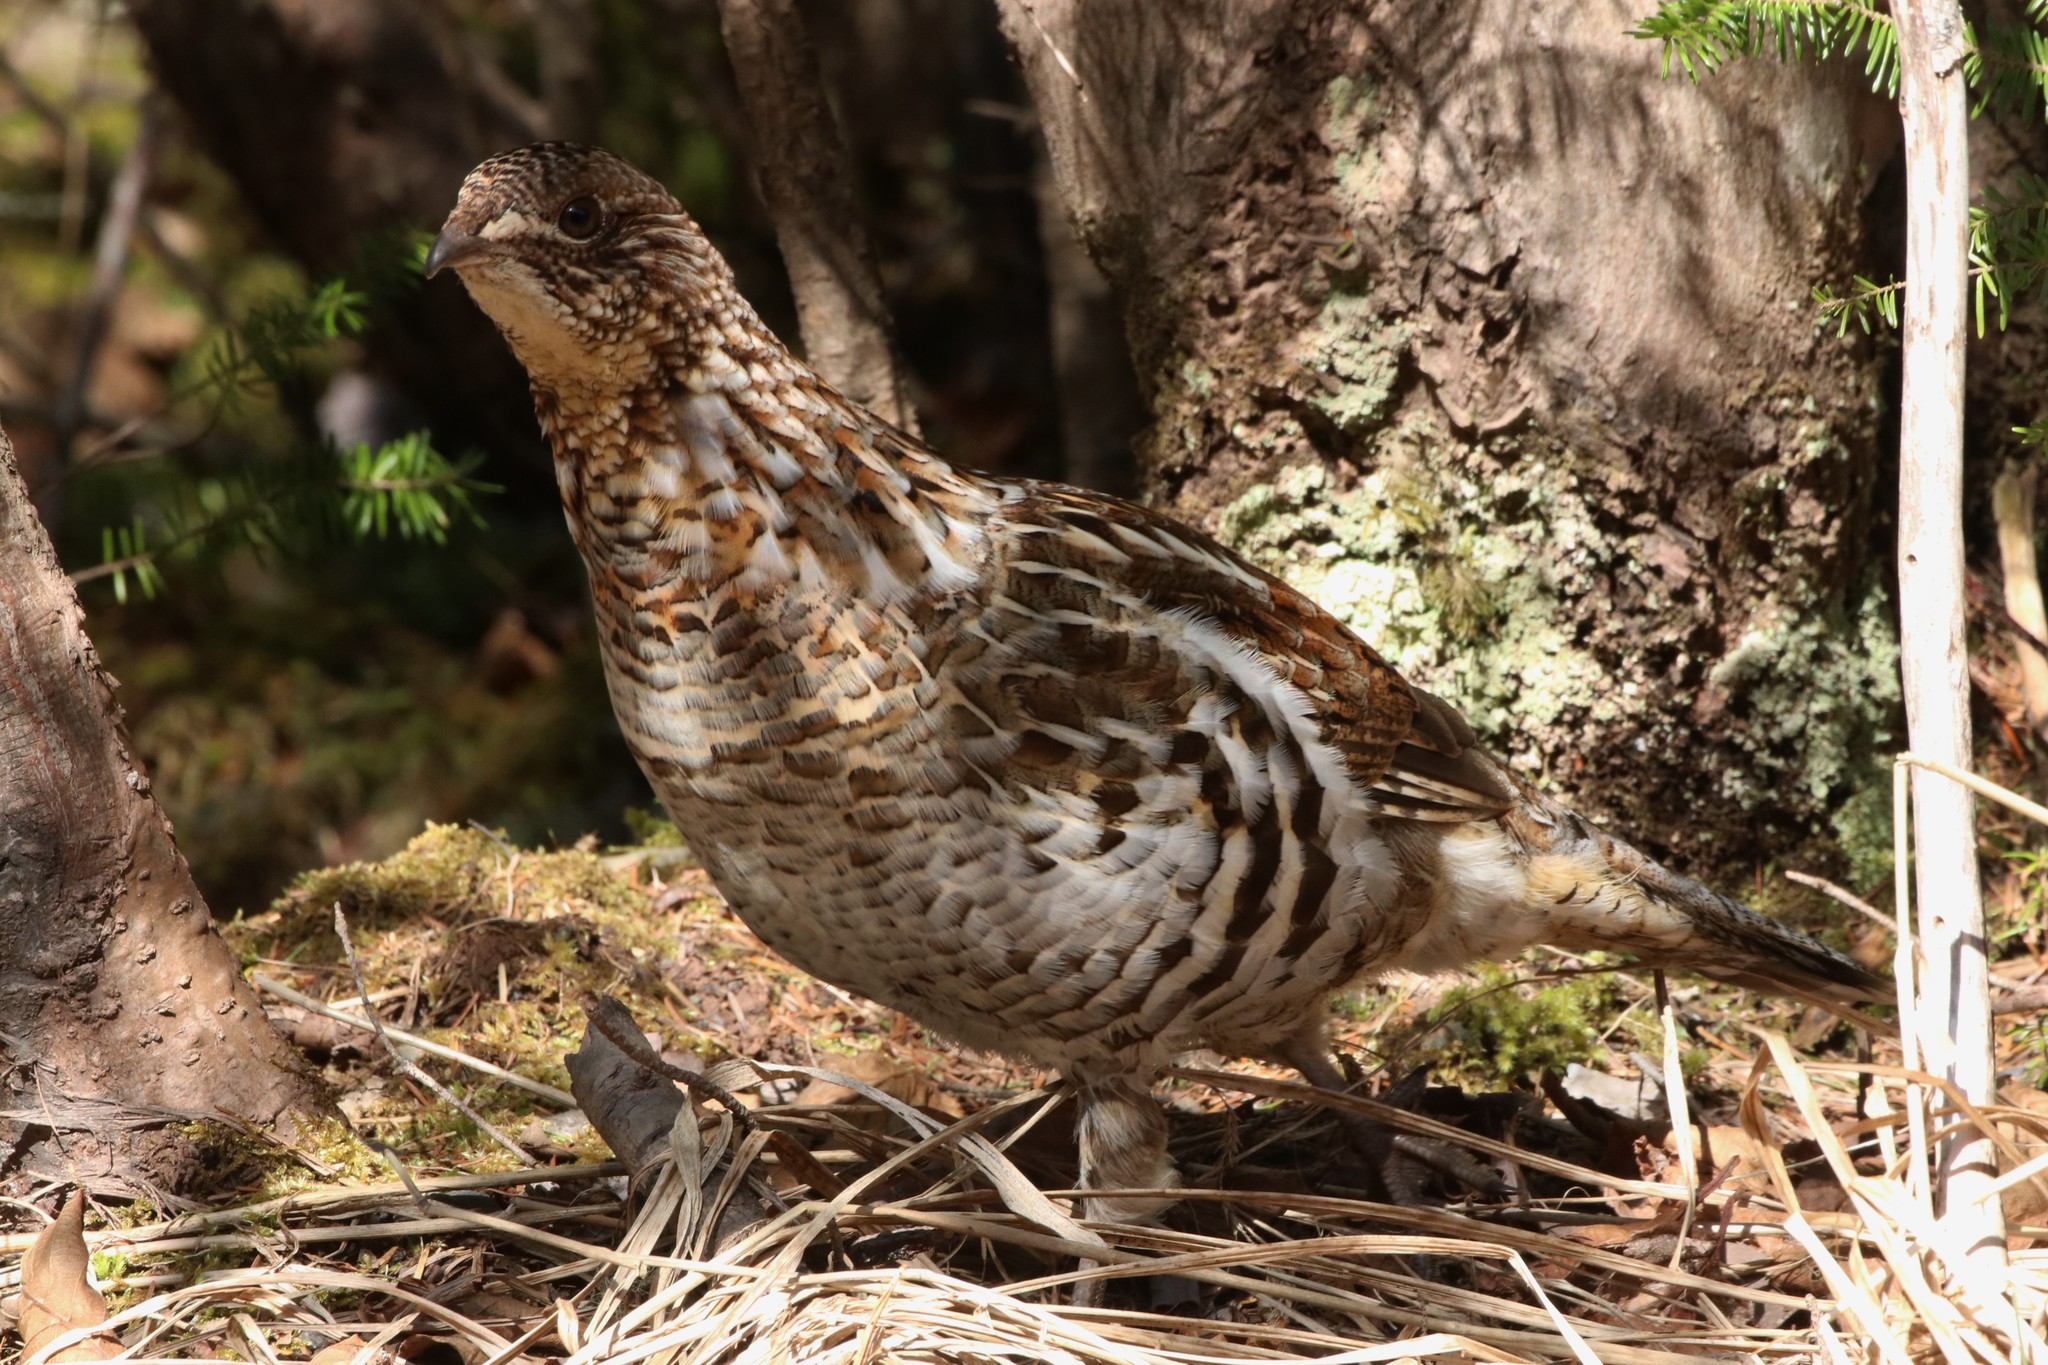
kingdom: Animalia
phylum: Chordata
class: Aves
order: Galliformes
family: Phasianidae
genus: Bonasa
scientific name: Bonasa umbellus
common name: Ruffed grouse
